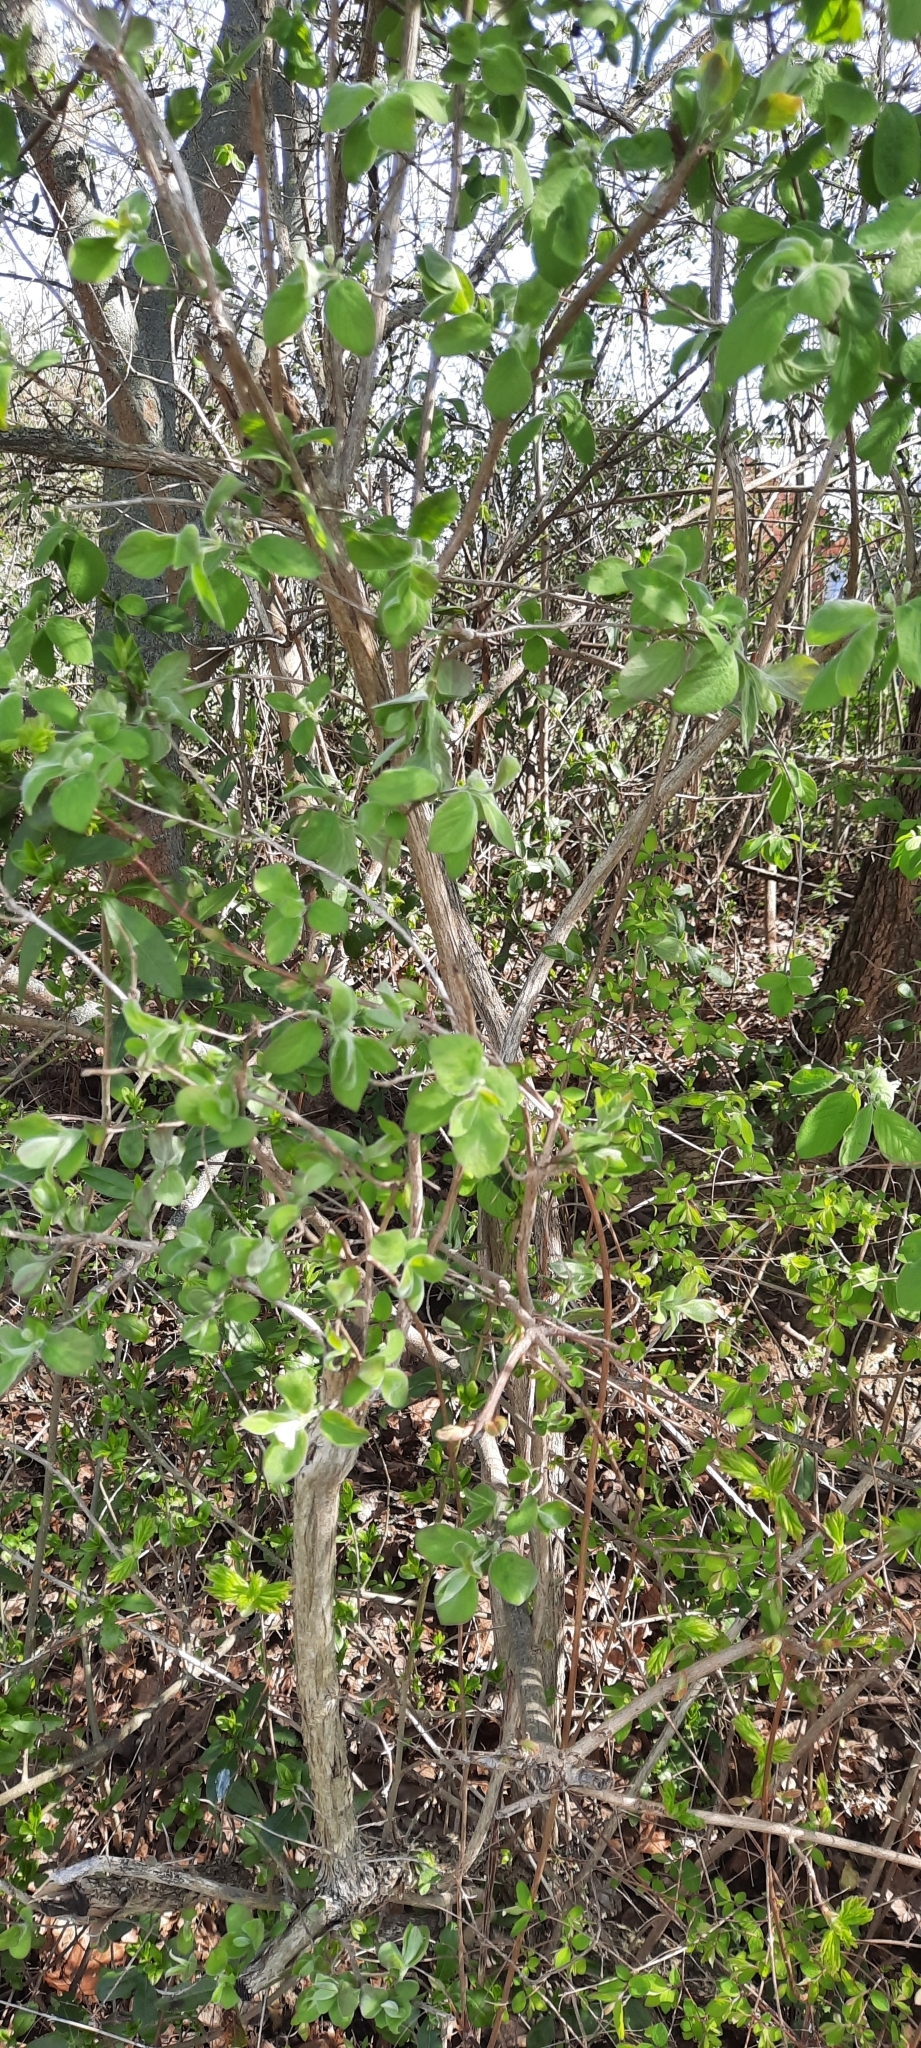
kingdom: Plantae
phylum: Tracheophyta
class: Magnoliopsida
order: Dipsacales
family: Caprifoliaceae
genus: Lonicera
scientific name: Lonicera xylosteum
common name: Fly honeysuckle
